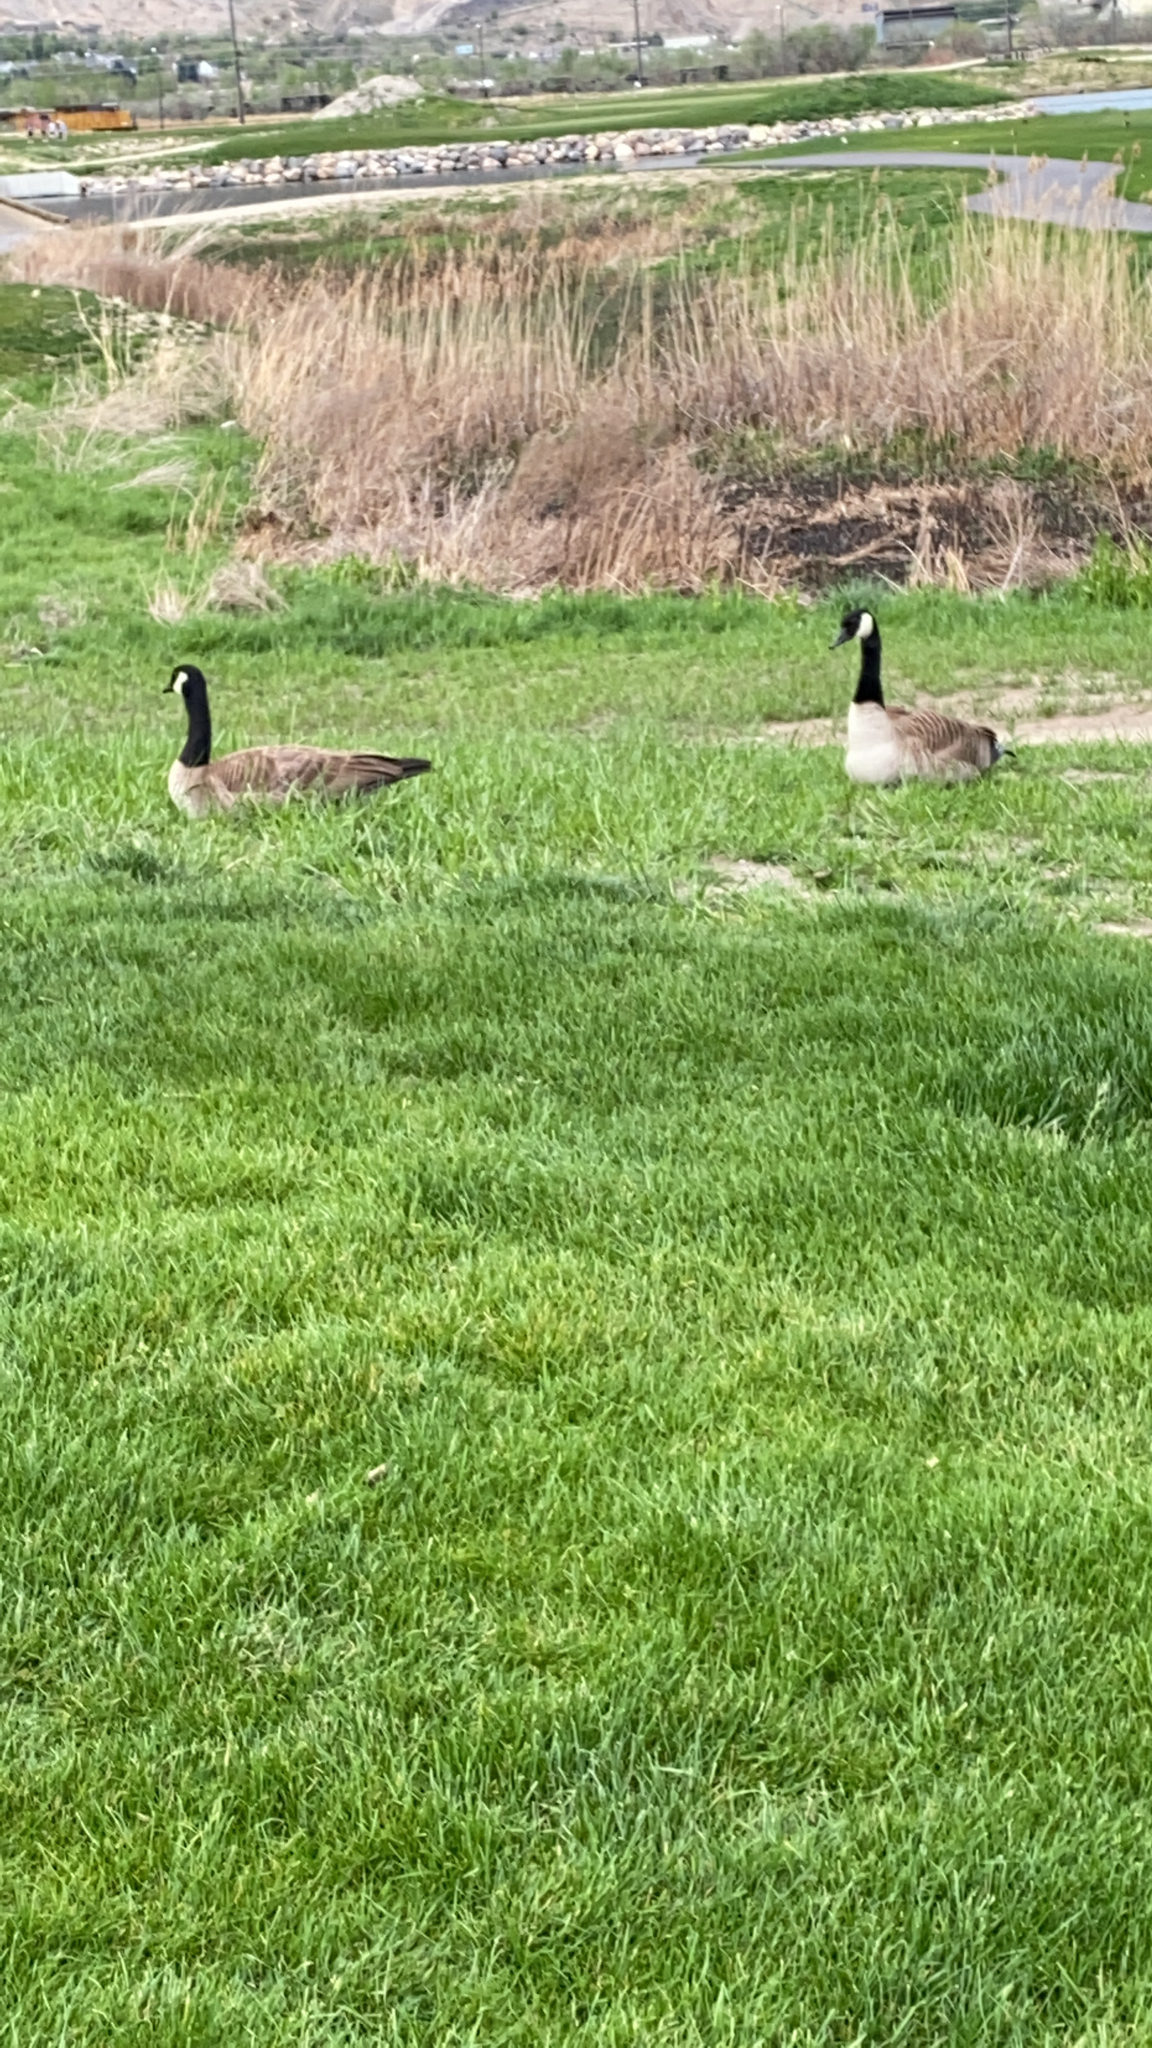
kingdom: Animalia
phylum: Chordata
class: Aves
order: Anseriformes
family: Anatidae
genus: Branta
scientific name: Branta canadensis
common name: Canada goose
